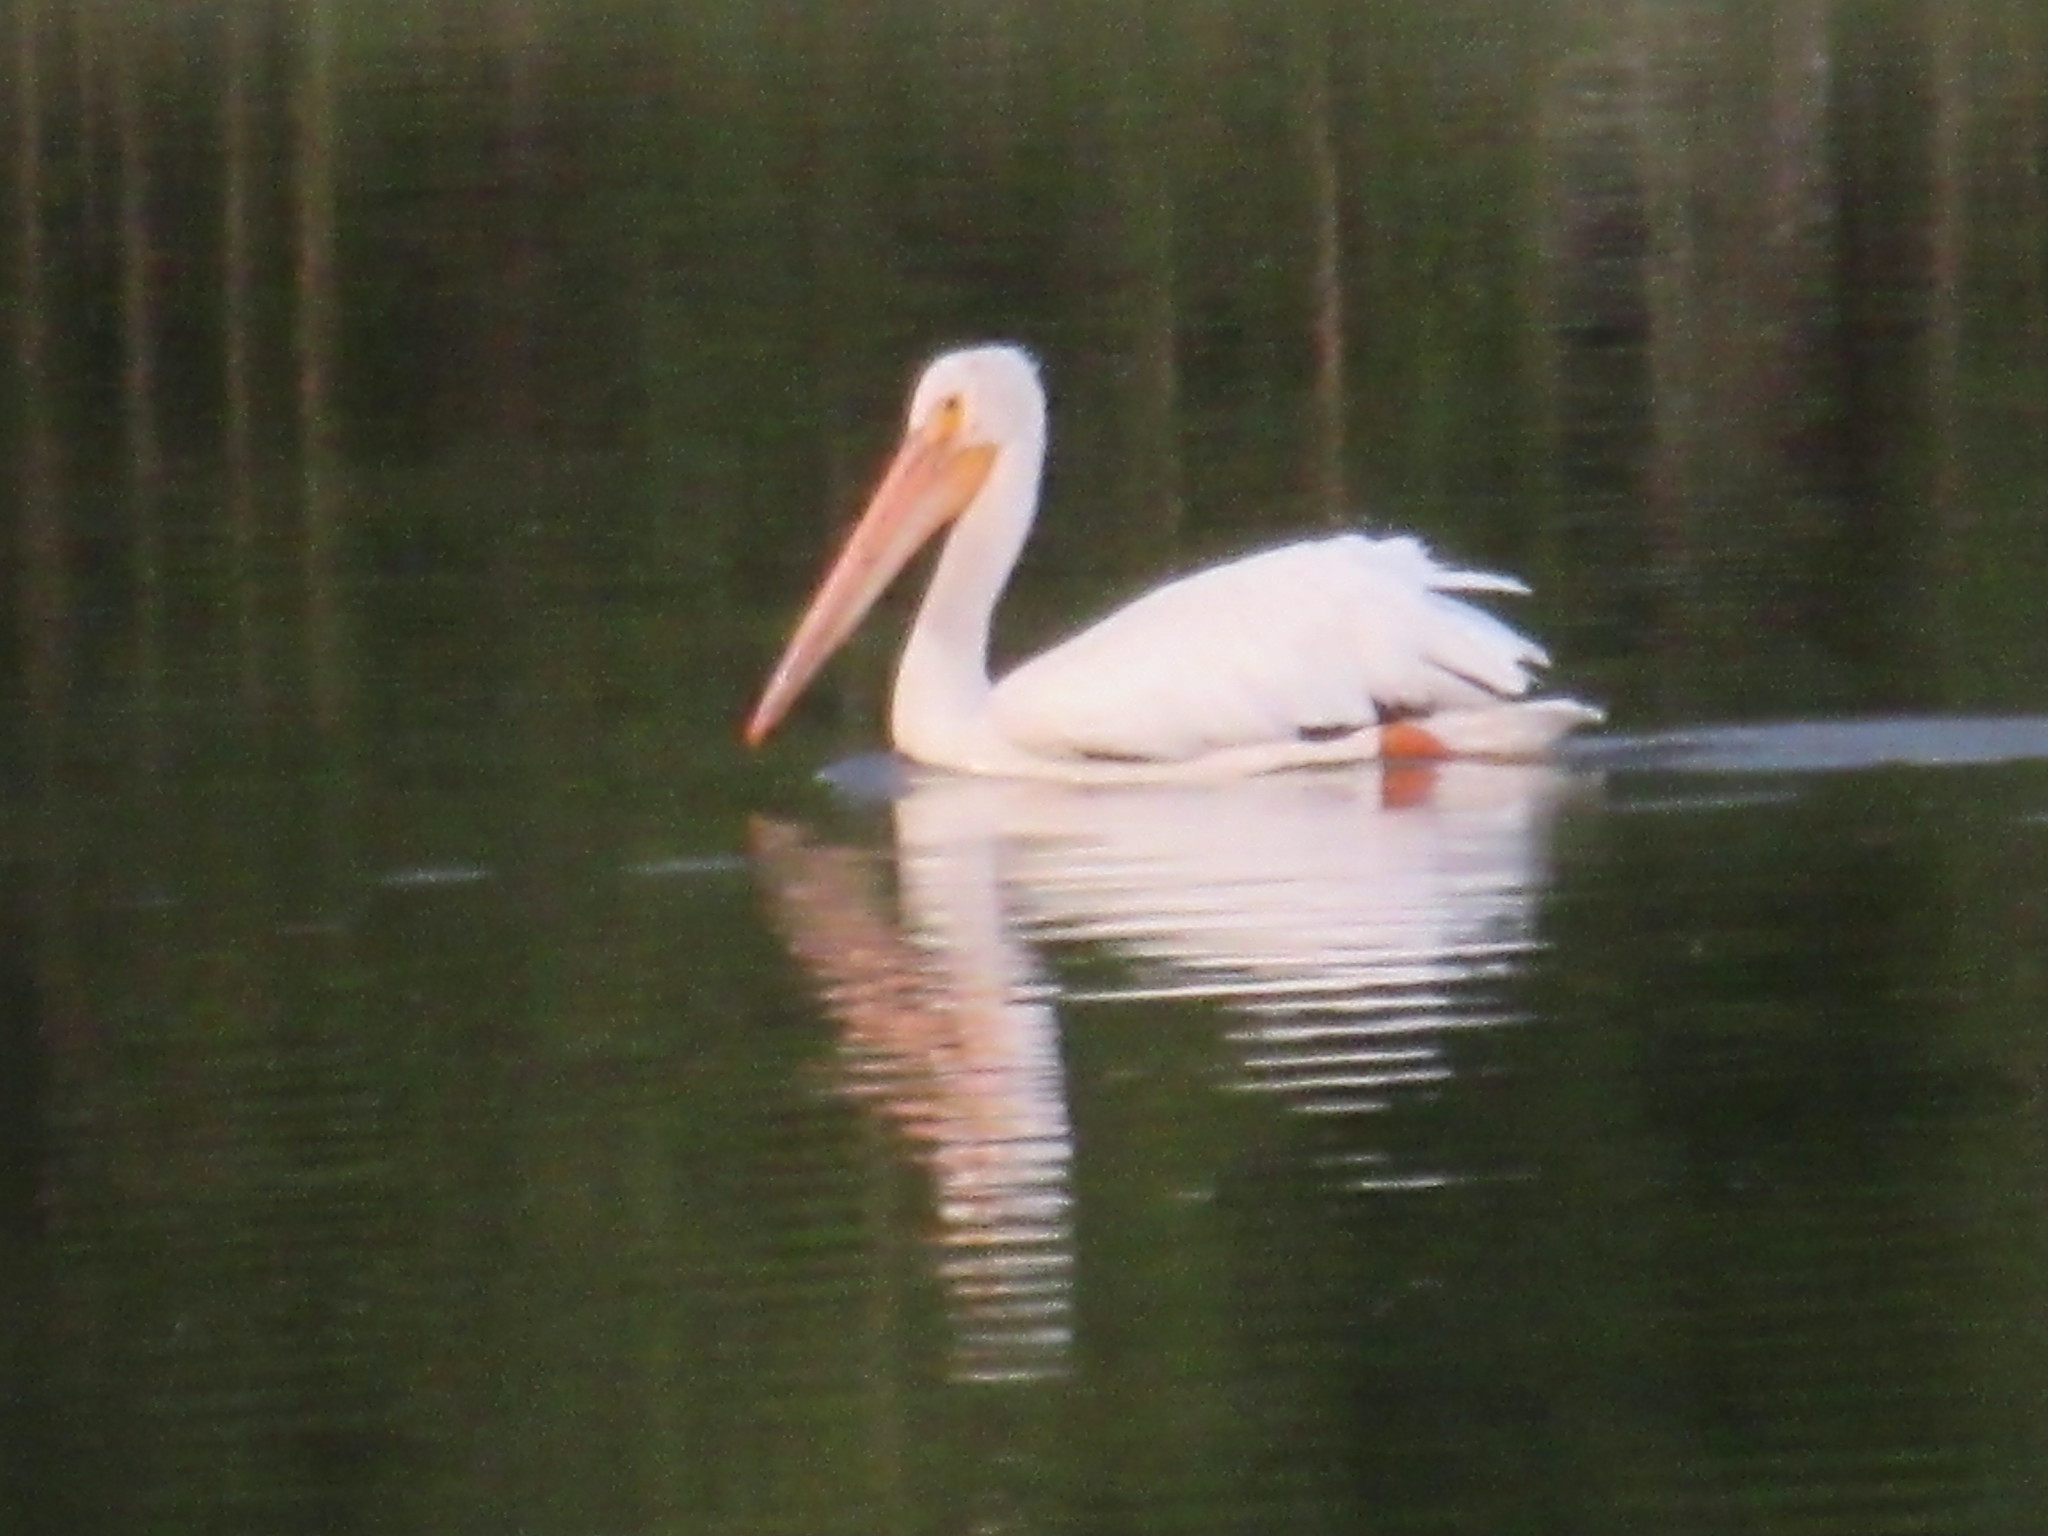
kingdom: Animalia
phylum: Chordata
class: Aves
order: Pelecaniformes
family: Pelecanidae
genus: Pelecanus
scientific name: Pelecanus erythrorhynchos
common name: American white pelican
